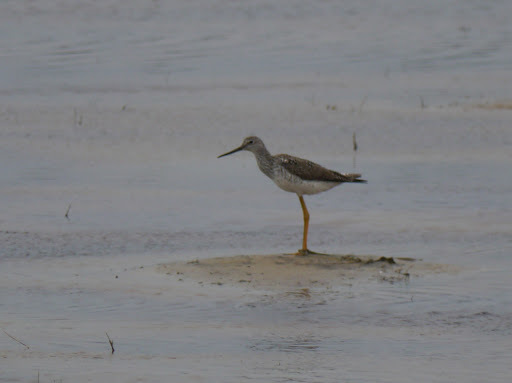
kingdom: Animalia
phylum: Chordata
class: Aves
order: Charadriiformes
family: Scolopacidae
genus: Tringa
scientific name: Tringa melanoleuca
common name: Greater yellowlegs
